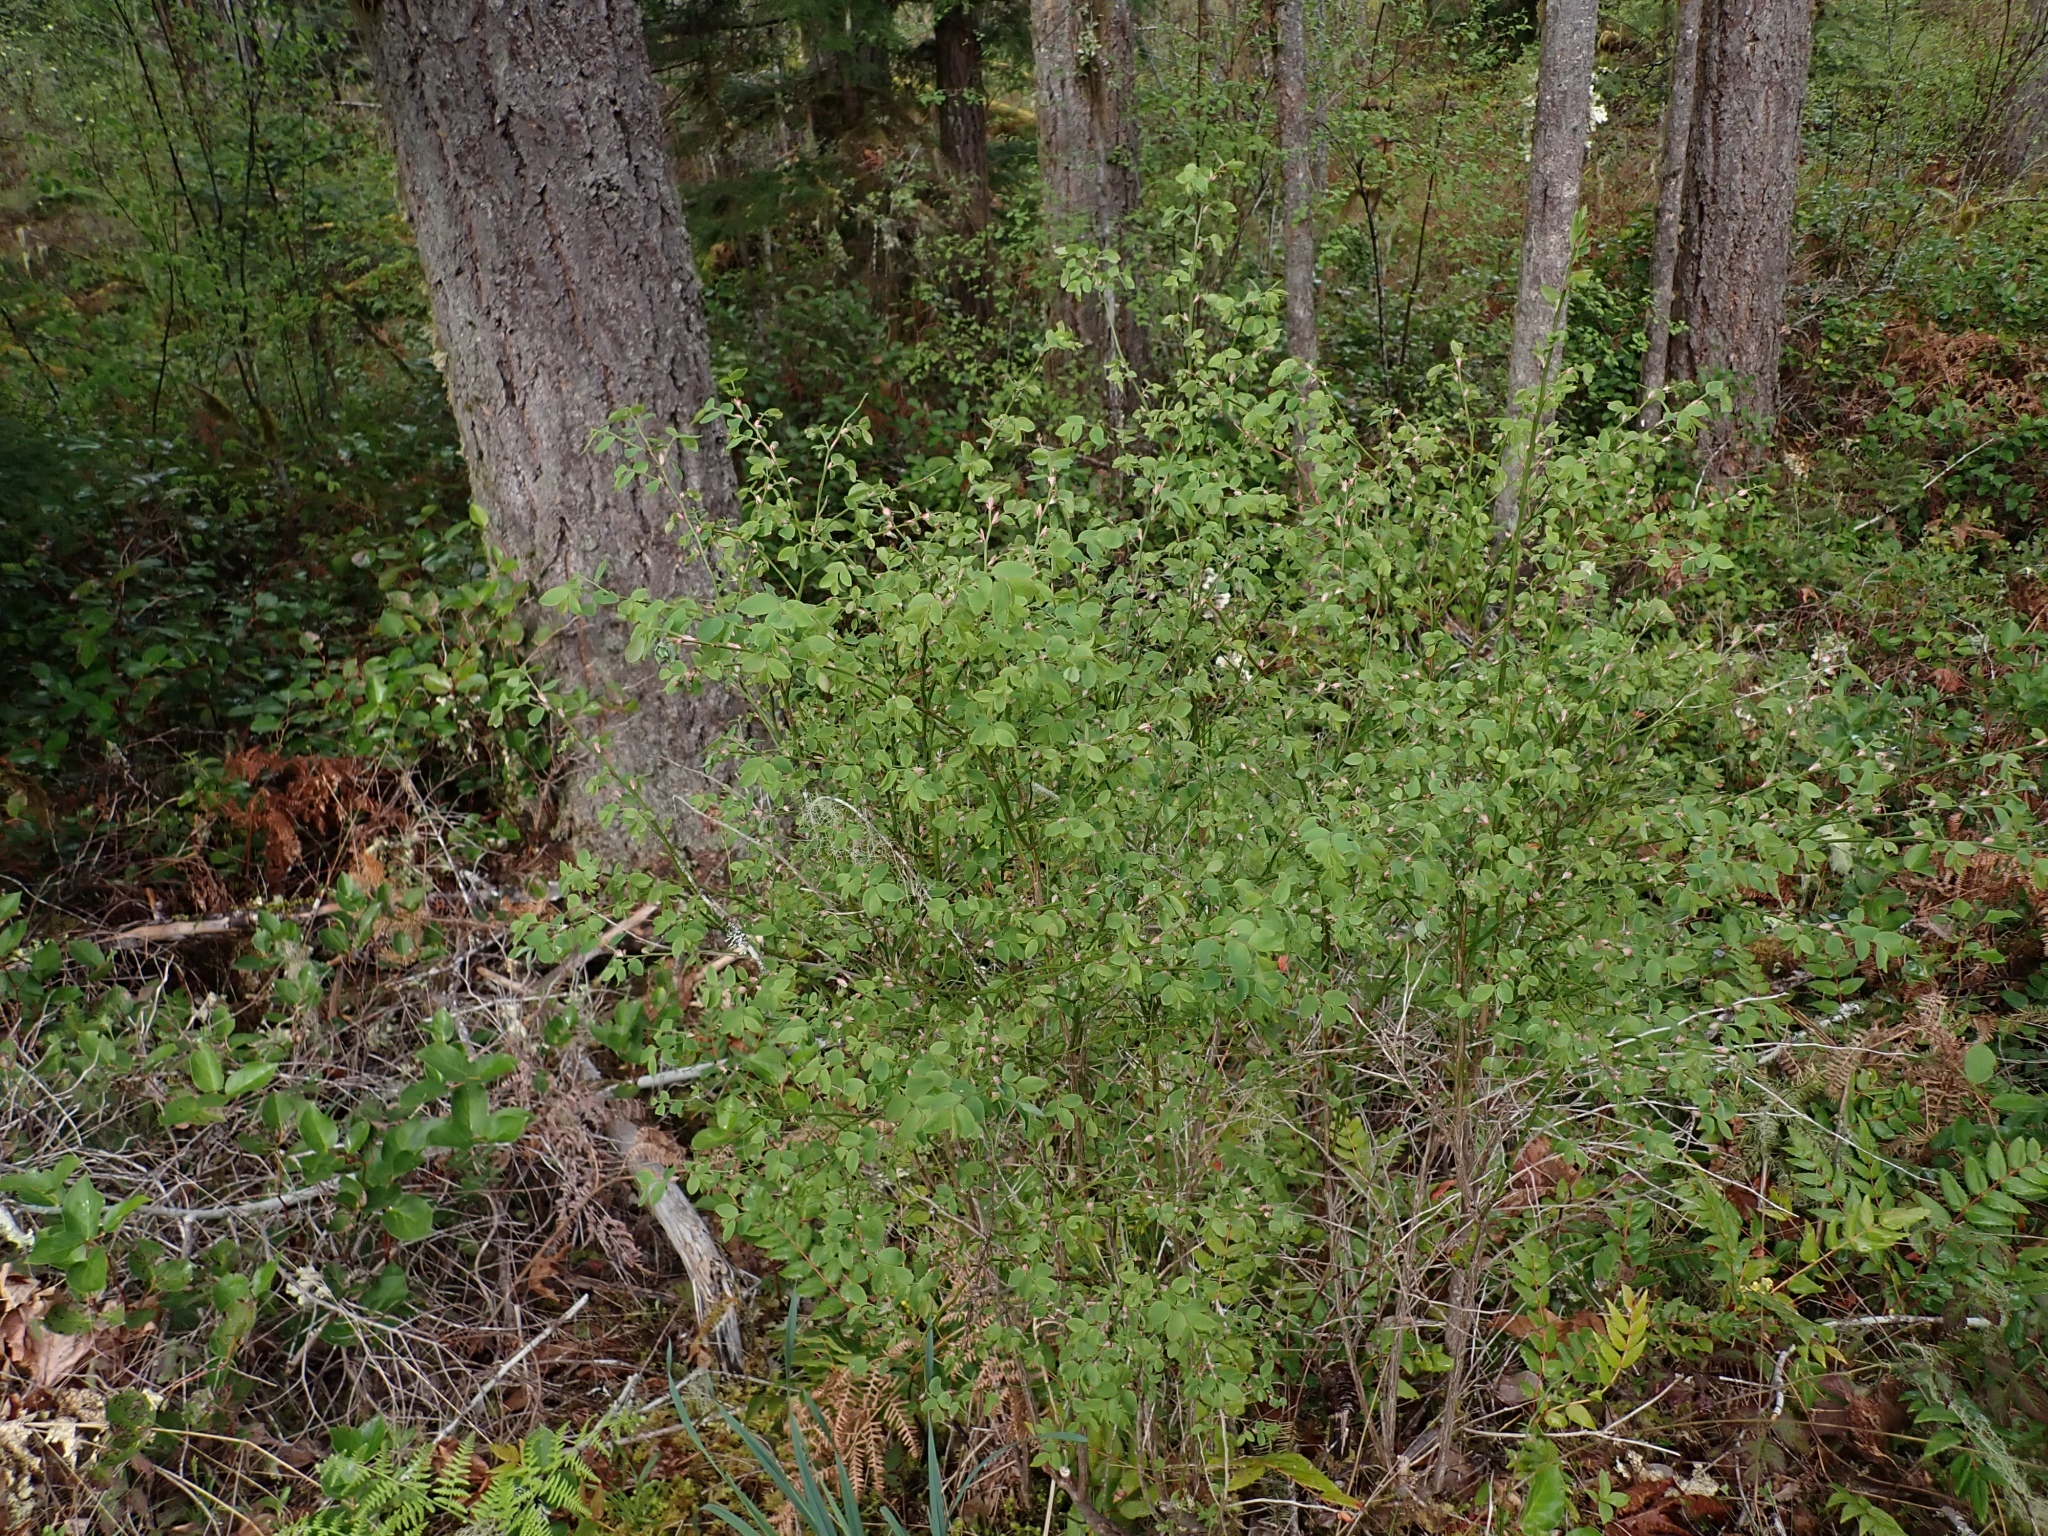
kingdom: Plantae
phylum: Tracheophyta
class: Magnoliopsida
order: Ericales
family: Ericaceae
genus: Vaccinium
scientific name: Vaccinium parvifolium
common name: Red-huckleberry
